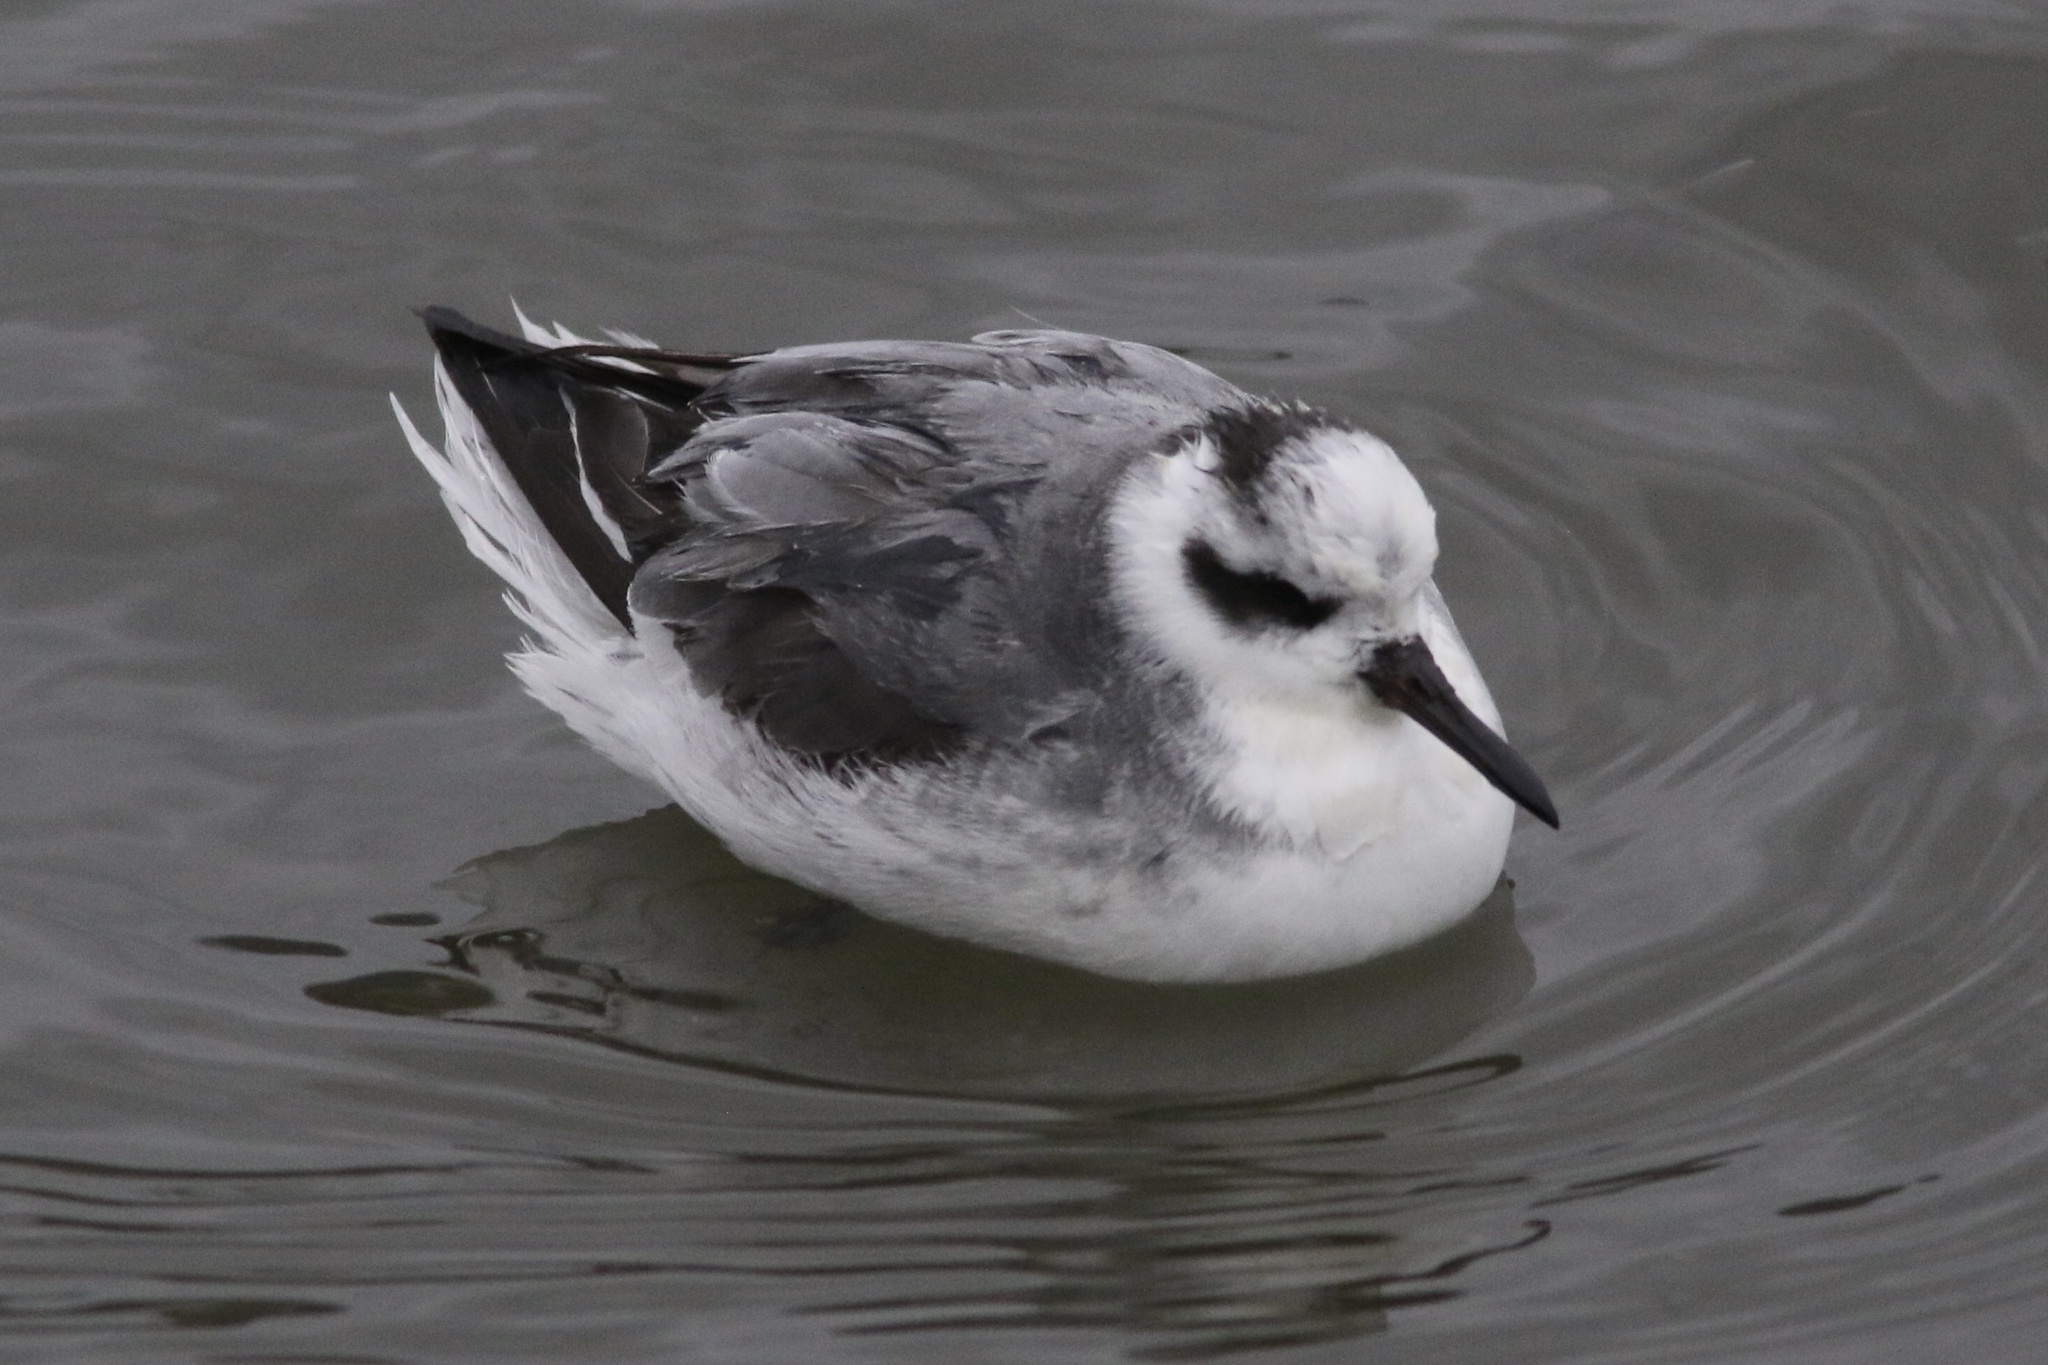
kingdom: Animalia
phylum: Chordata
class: Aves
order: Charadriiformes
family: Scolopacidae
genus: Phalaropus
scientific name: Phalaropus fulicarius
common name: Red phalarope
